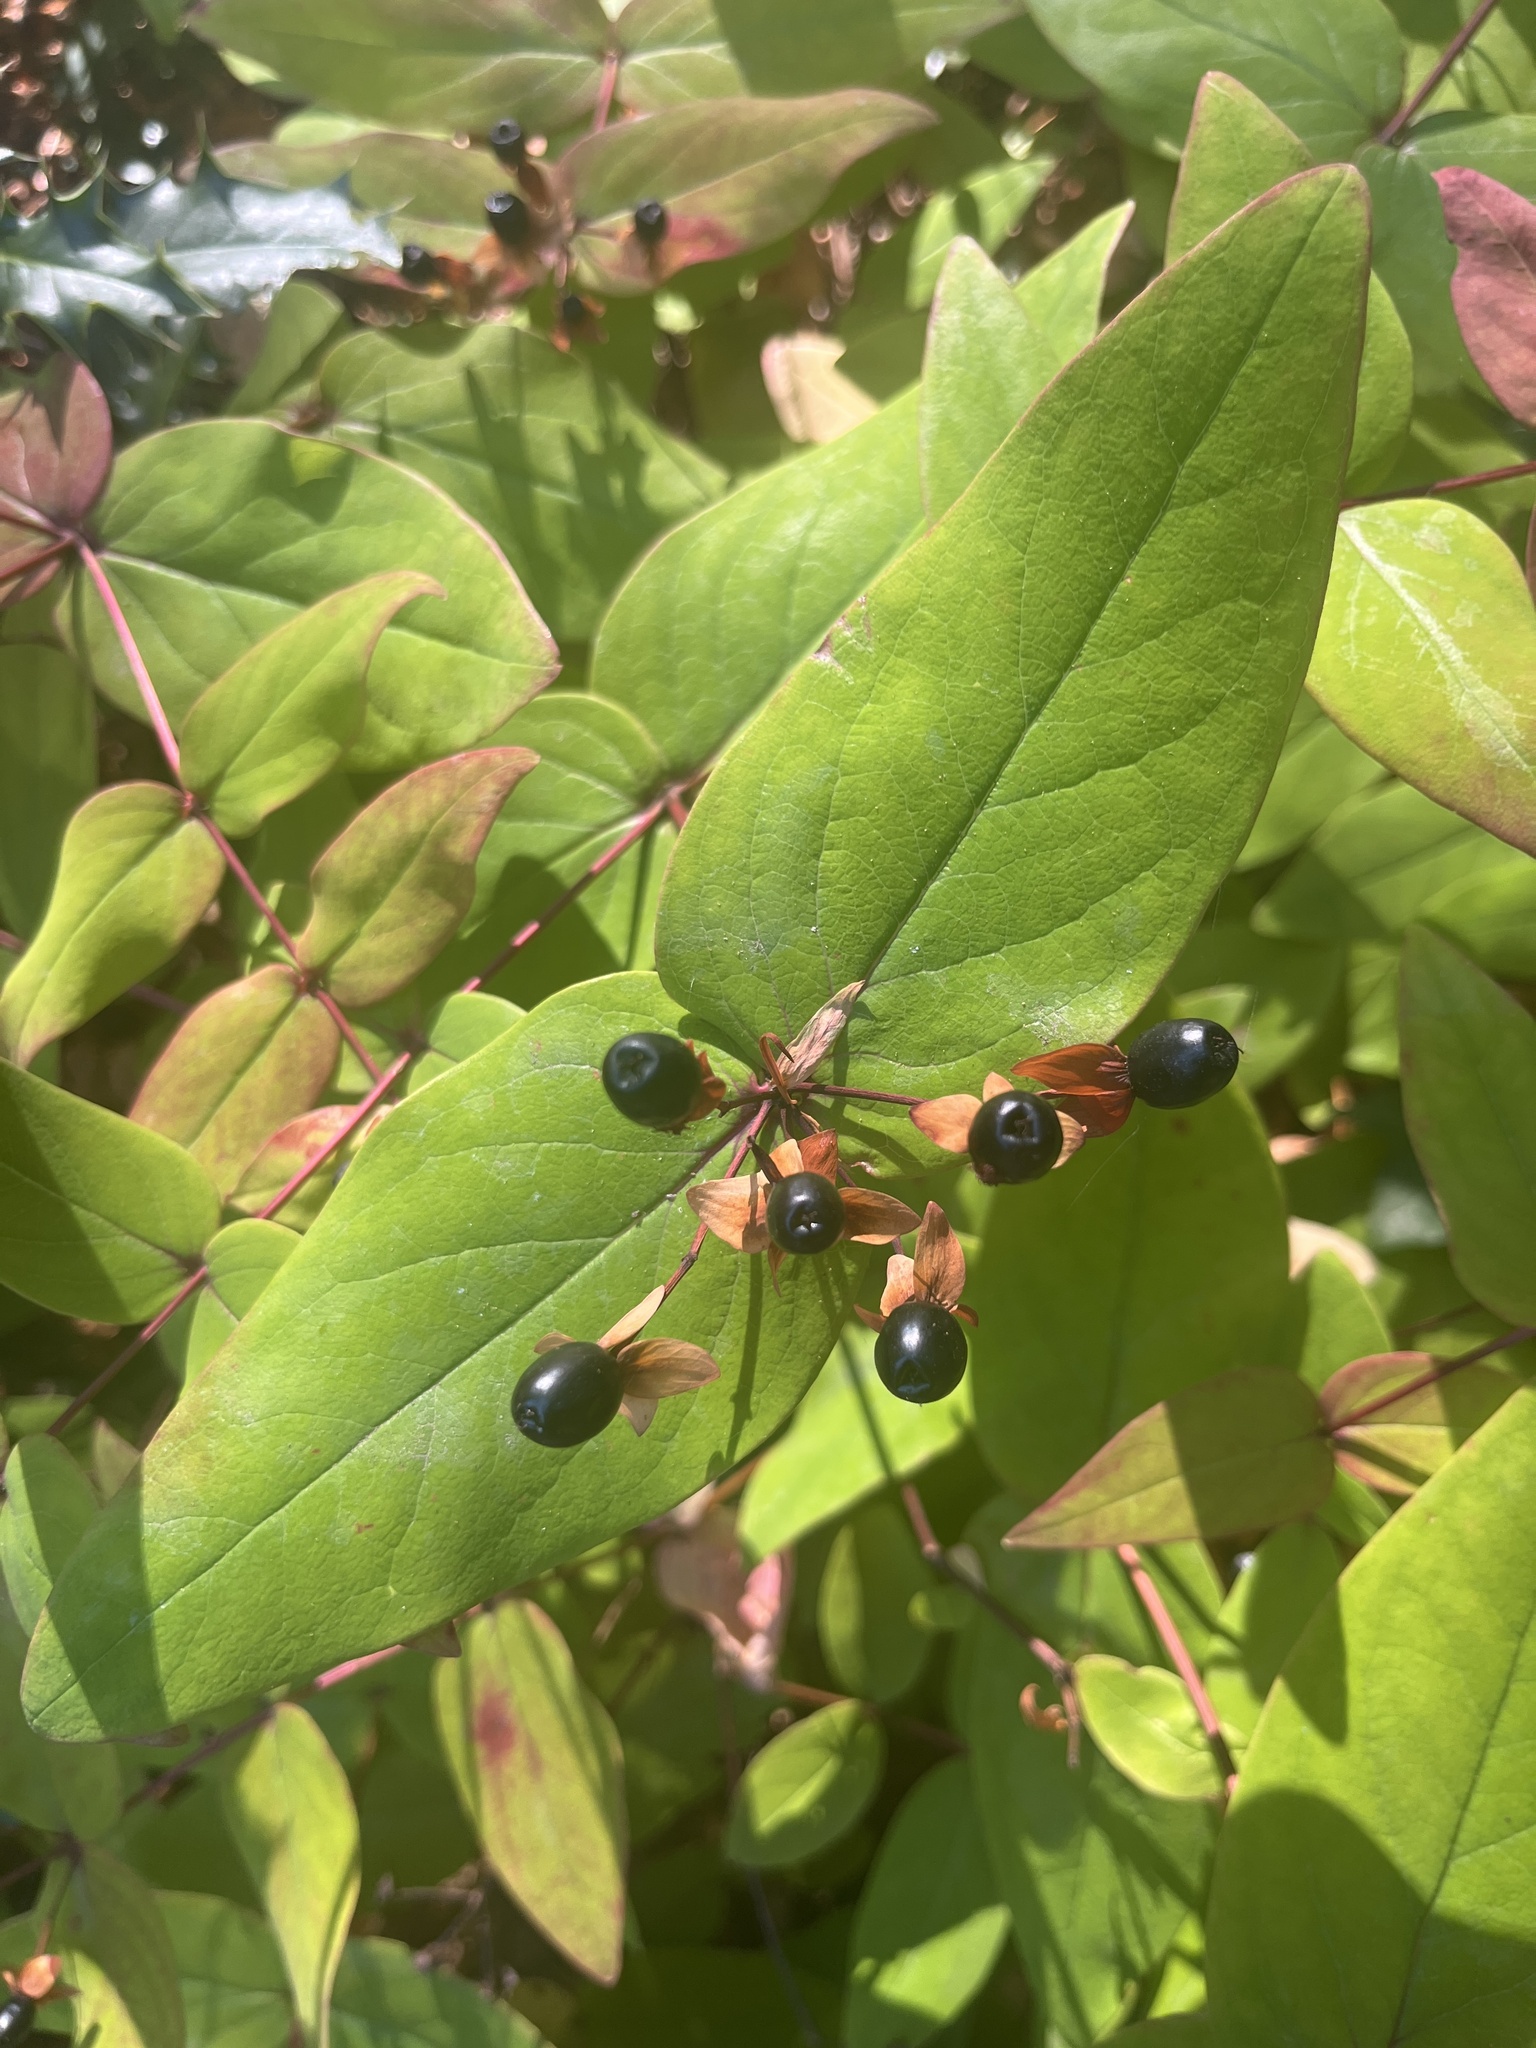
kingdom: Plantae
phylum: Tracheophyta
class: Magnoliopsida
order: Malpighiales
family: Hypericaceae
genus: Hypericum
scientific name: Hypericum androsaemum
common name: Sweet-amber
